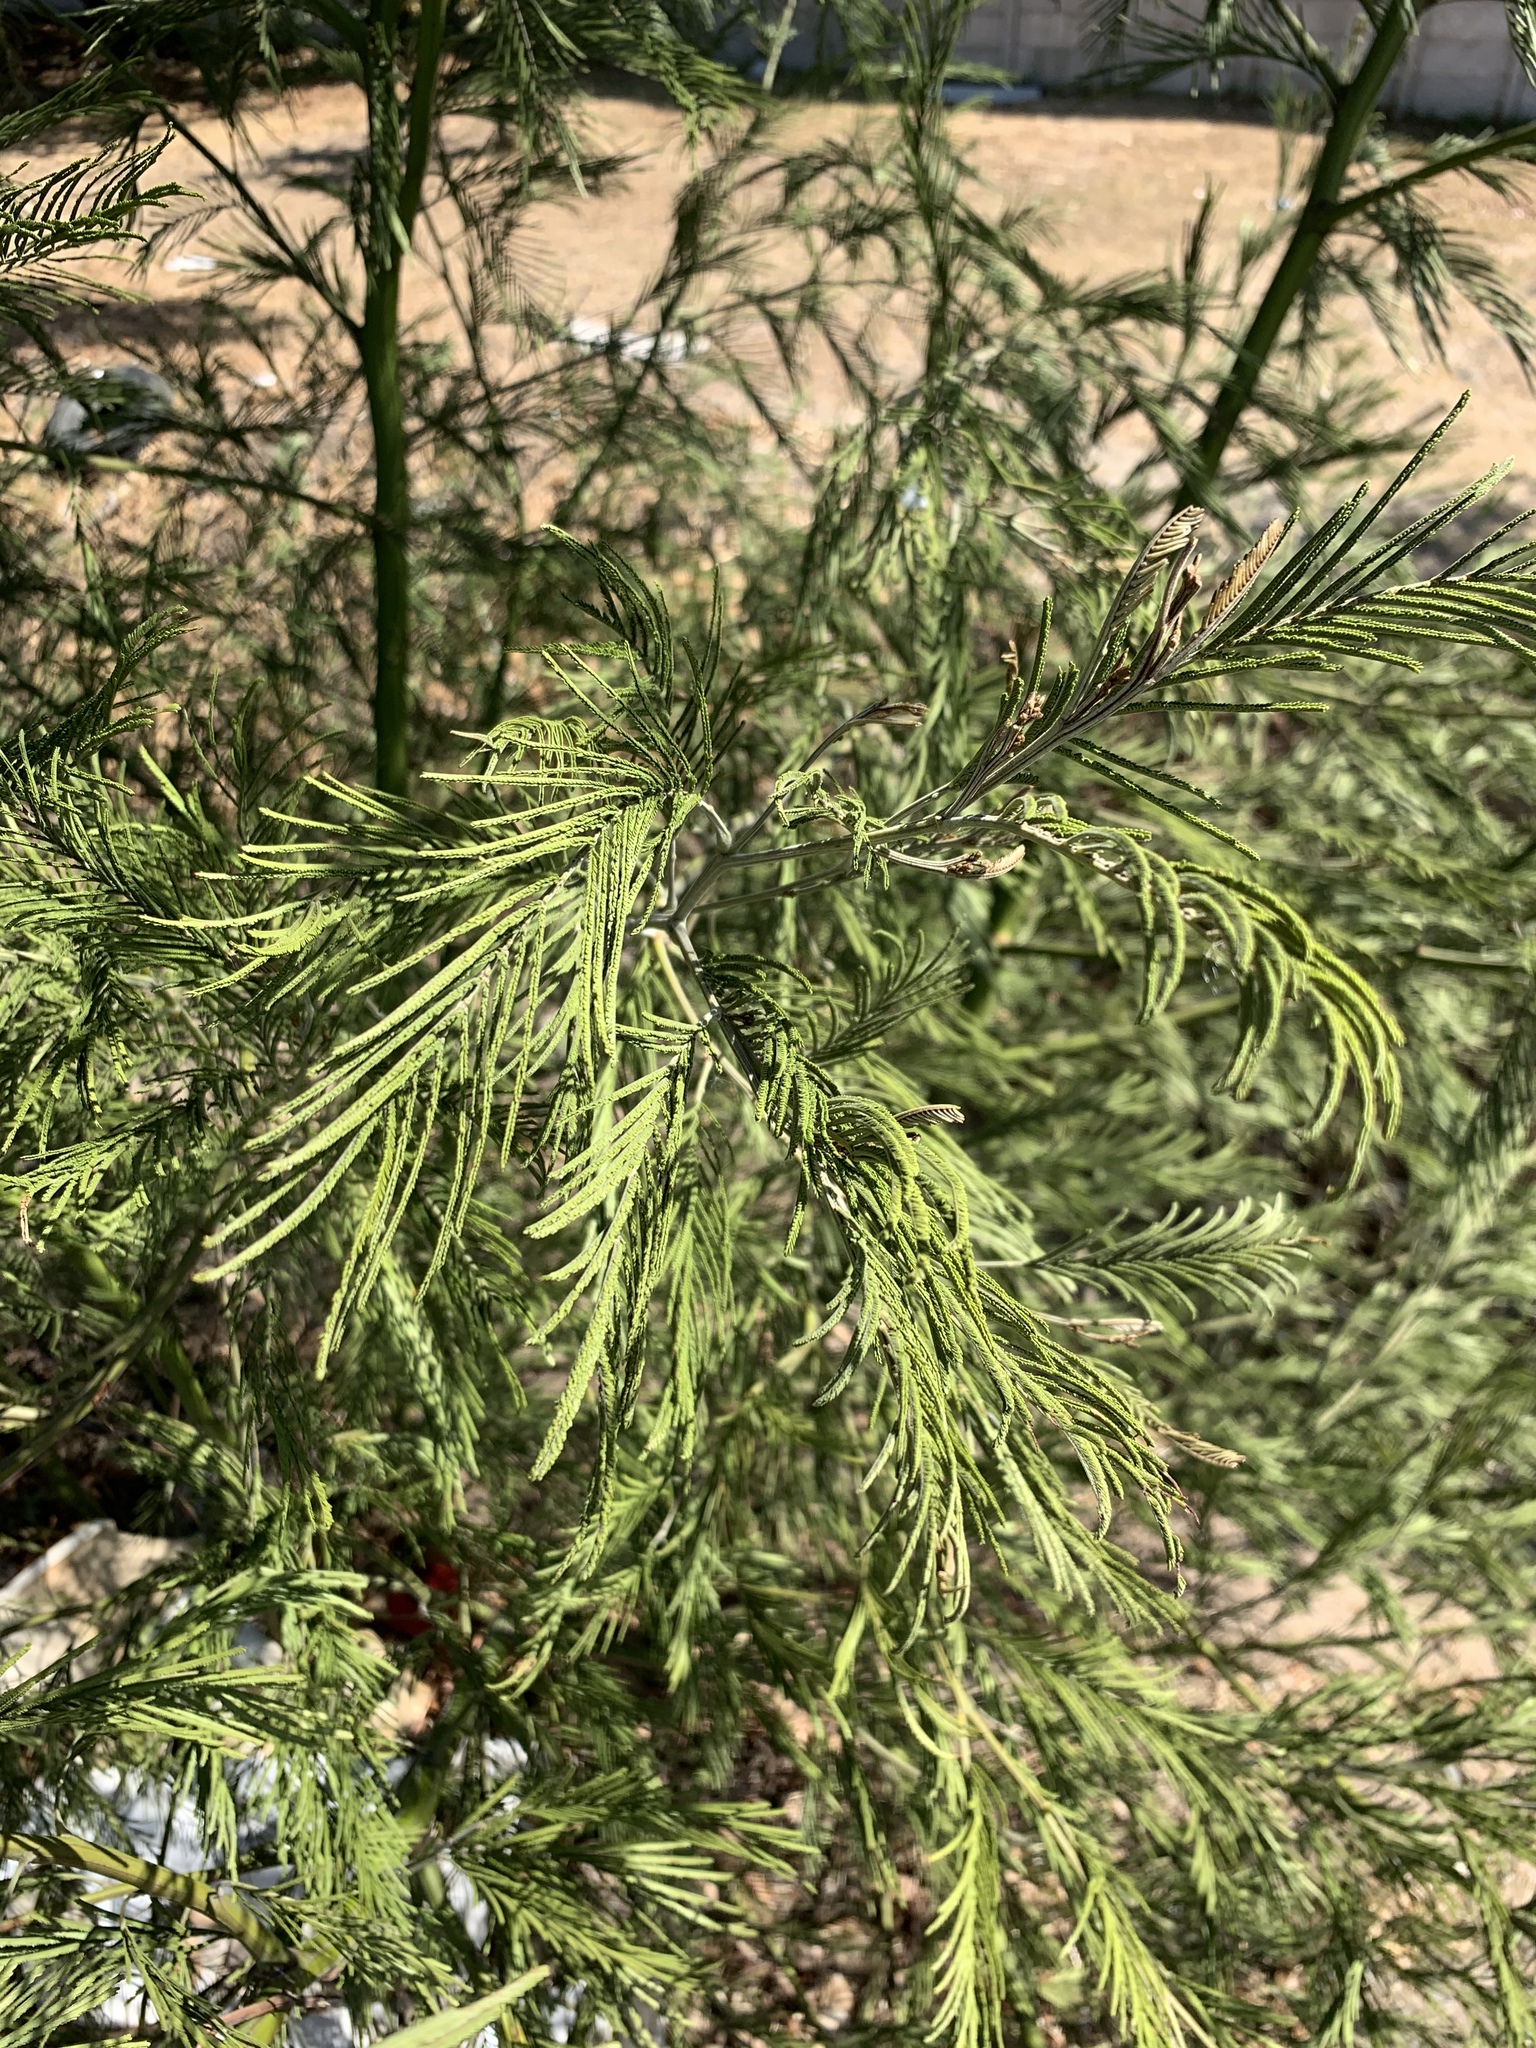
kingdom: Plantae
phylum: Tracheophyta
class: Magnoliopsida
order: Fabales
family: Fabaceae
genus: Acacia
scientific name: Acacia mearnsii
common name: Black wattle
